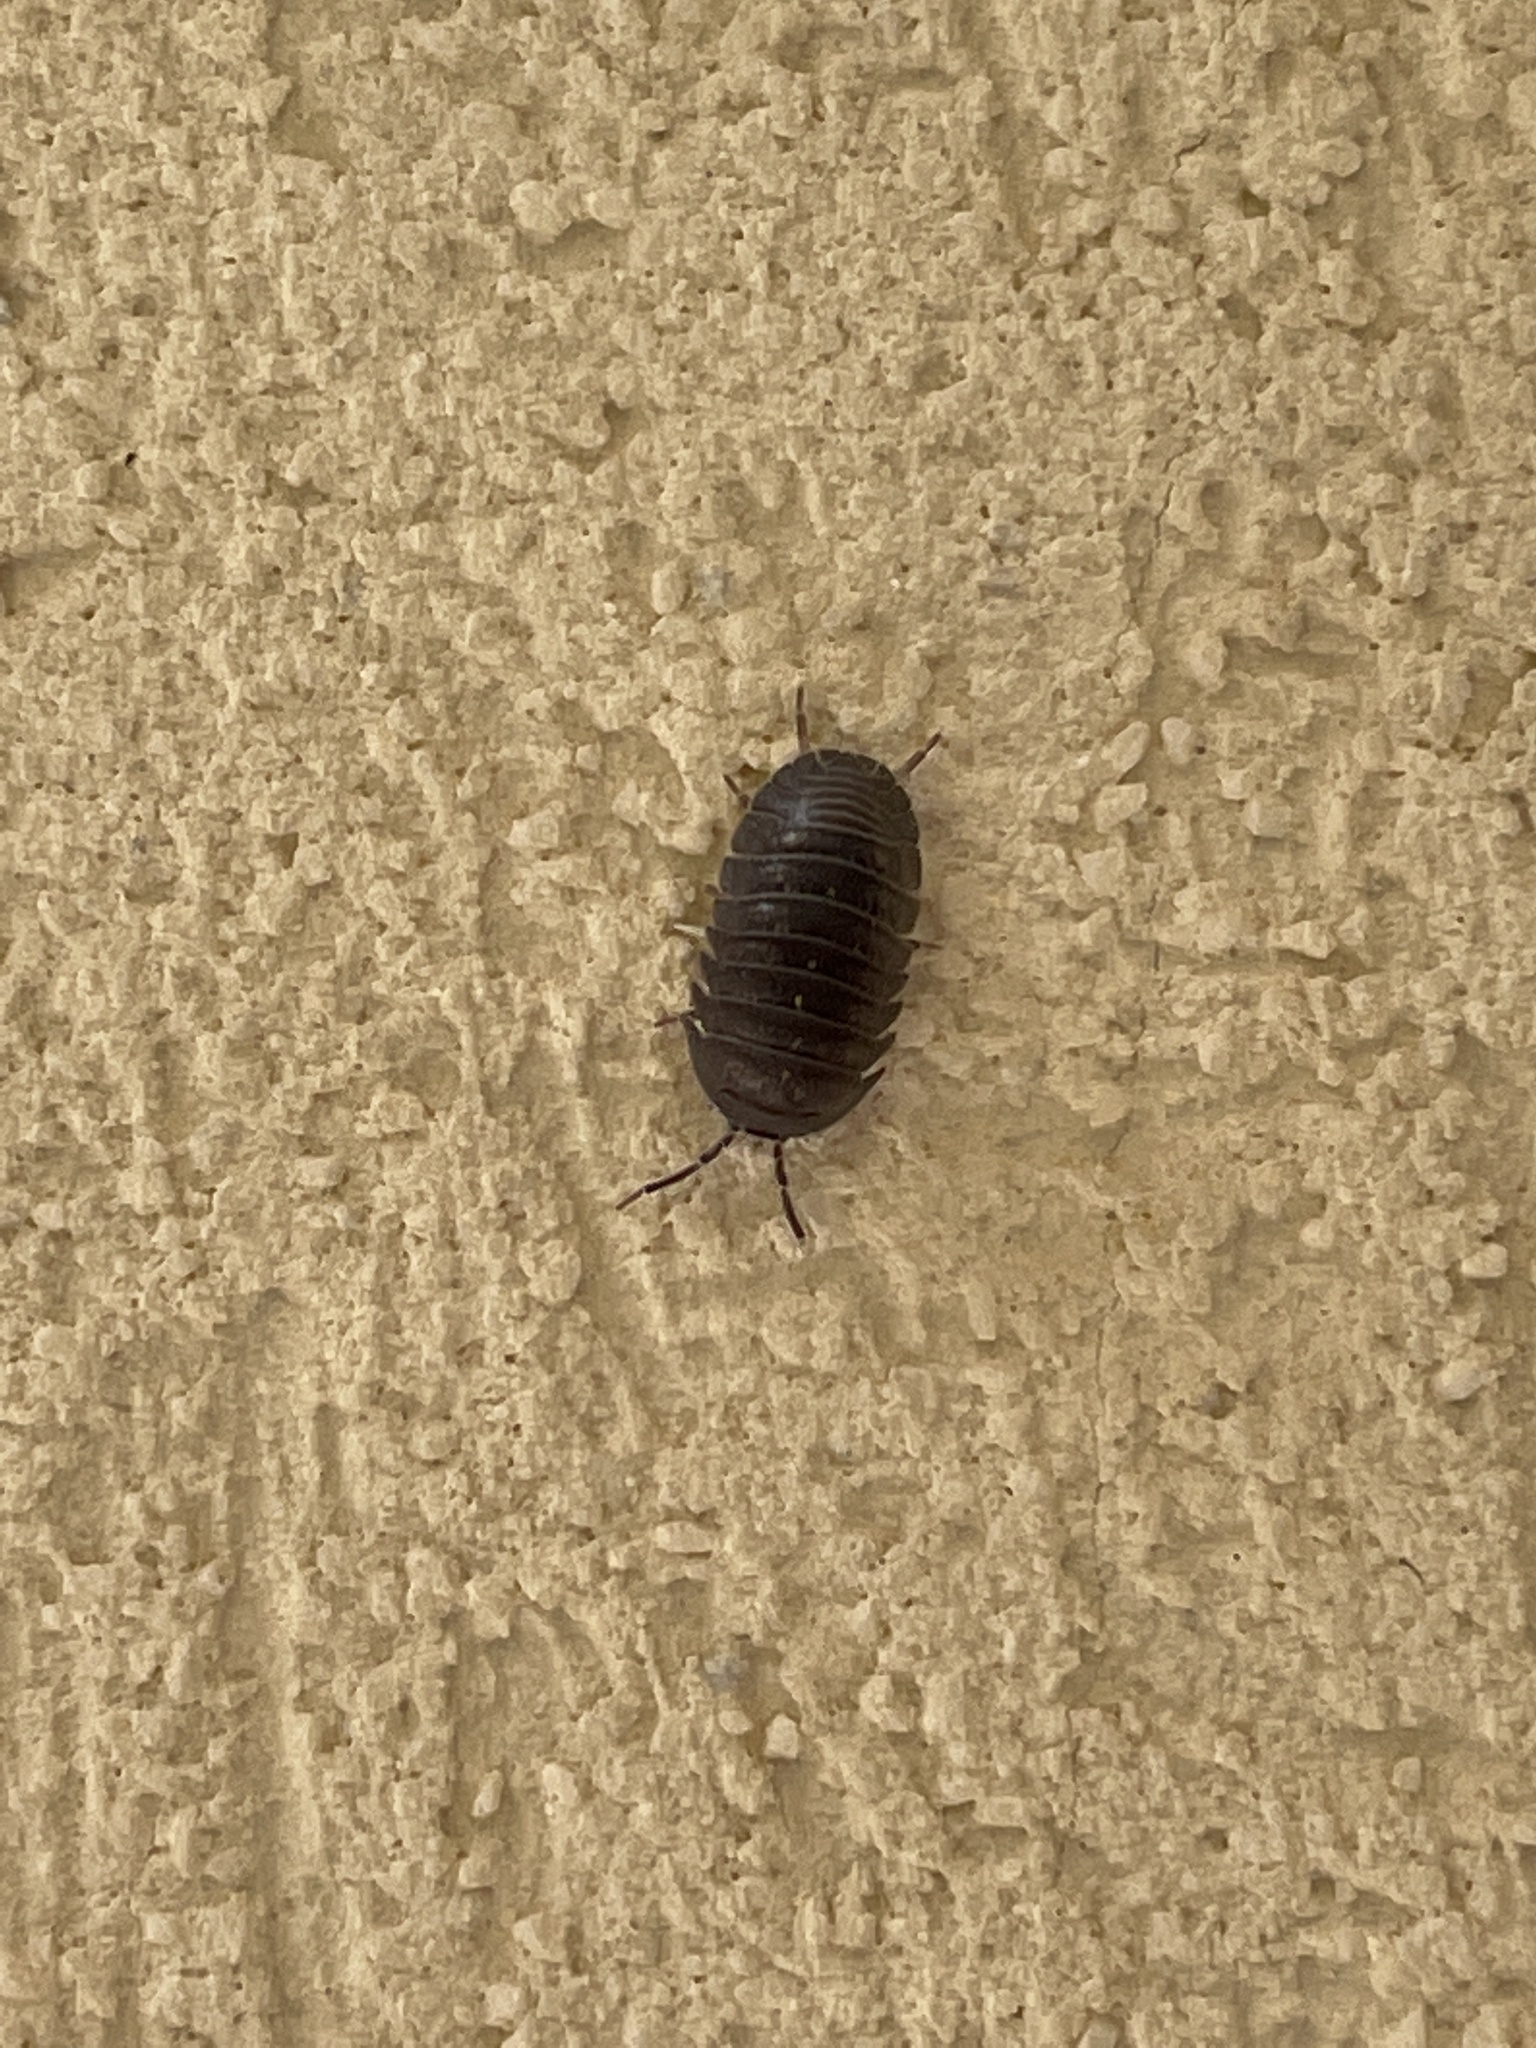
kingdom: Animalia
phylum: Arthropoda
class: Malacostraca
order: Isopoda
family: Armadillidiidae
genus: Armadillidium
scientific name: Armadillidium granulatum
